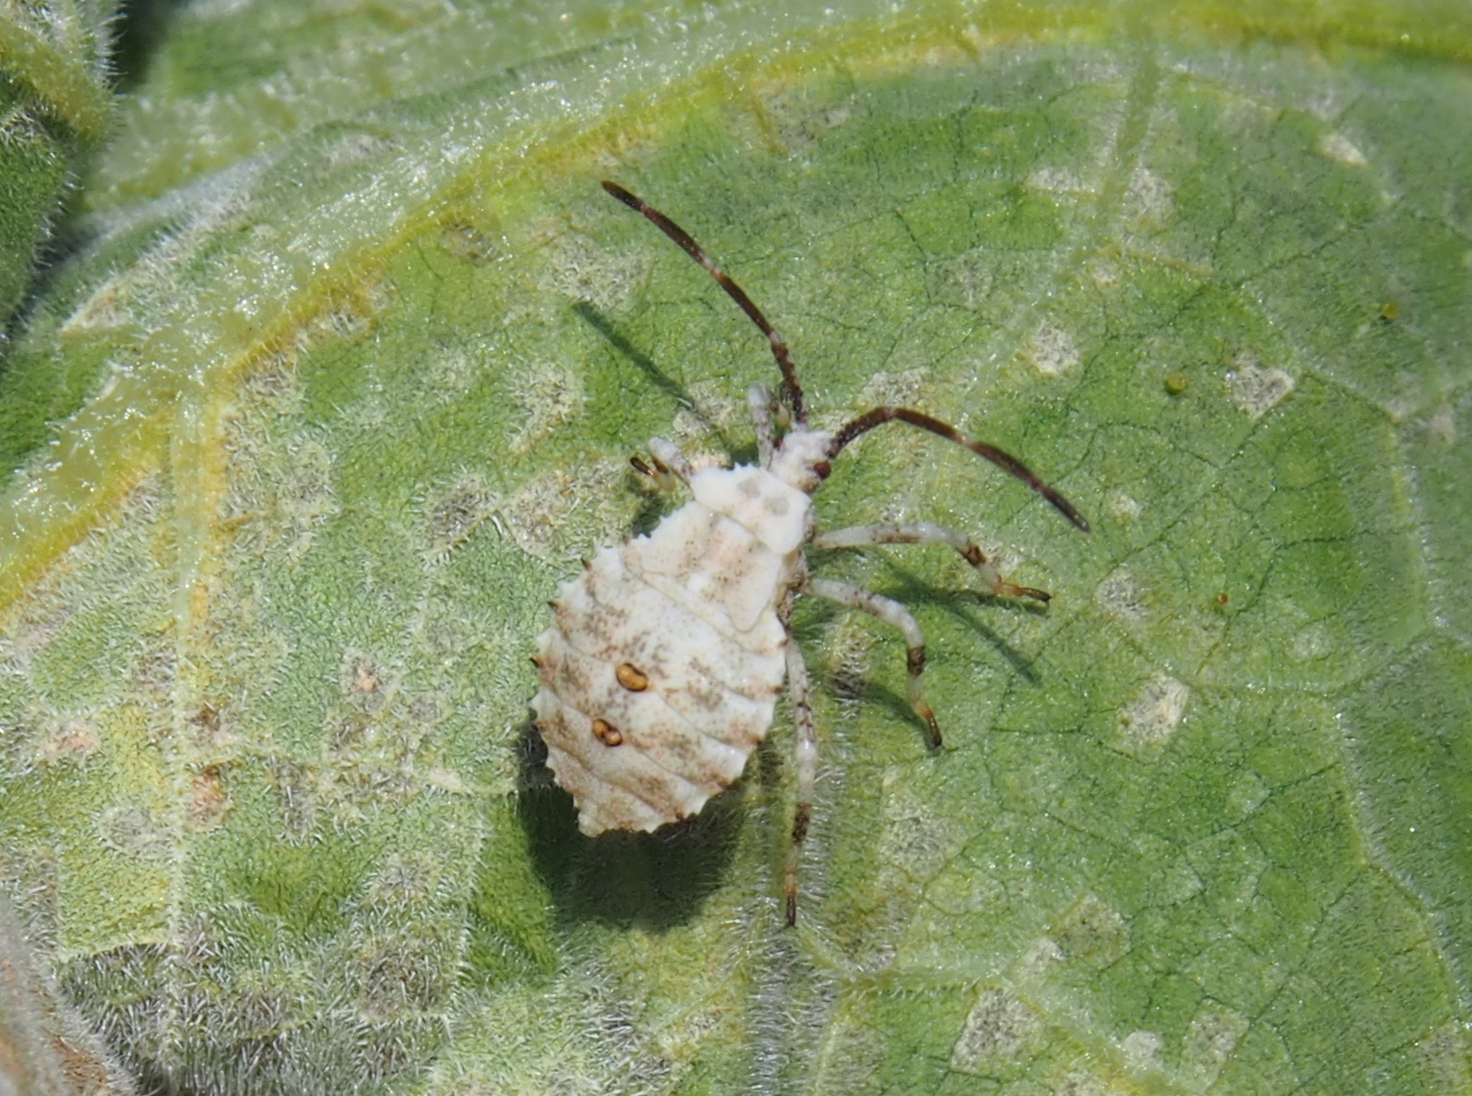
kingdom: Animalia
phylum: Arthropoda
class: Insecta
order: Hemiptera
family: Coreidae
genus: Anasa
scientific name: Anasa armigera
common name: Horned squash bug
